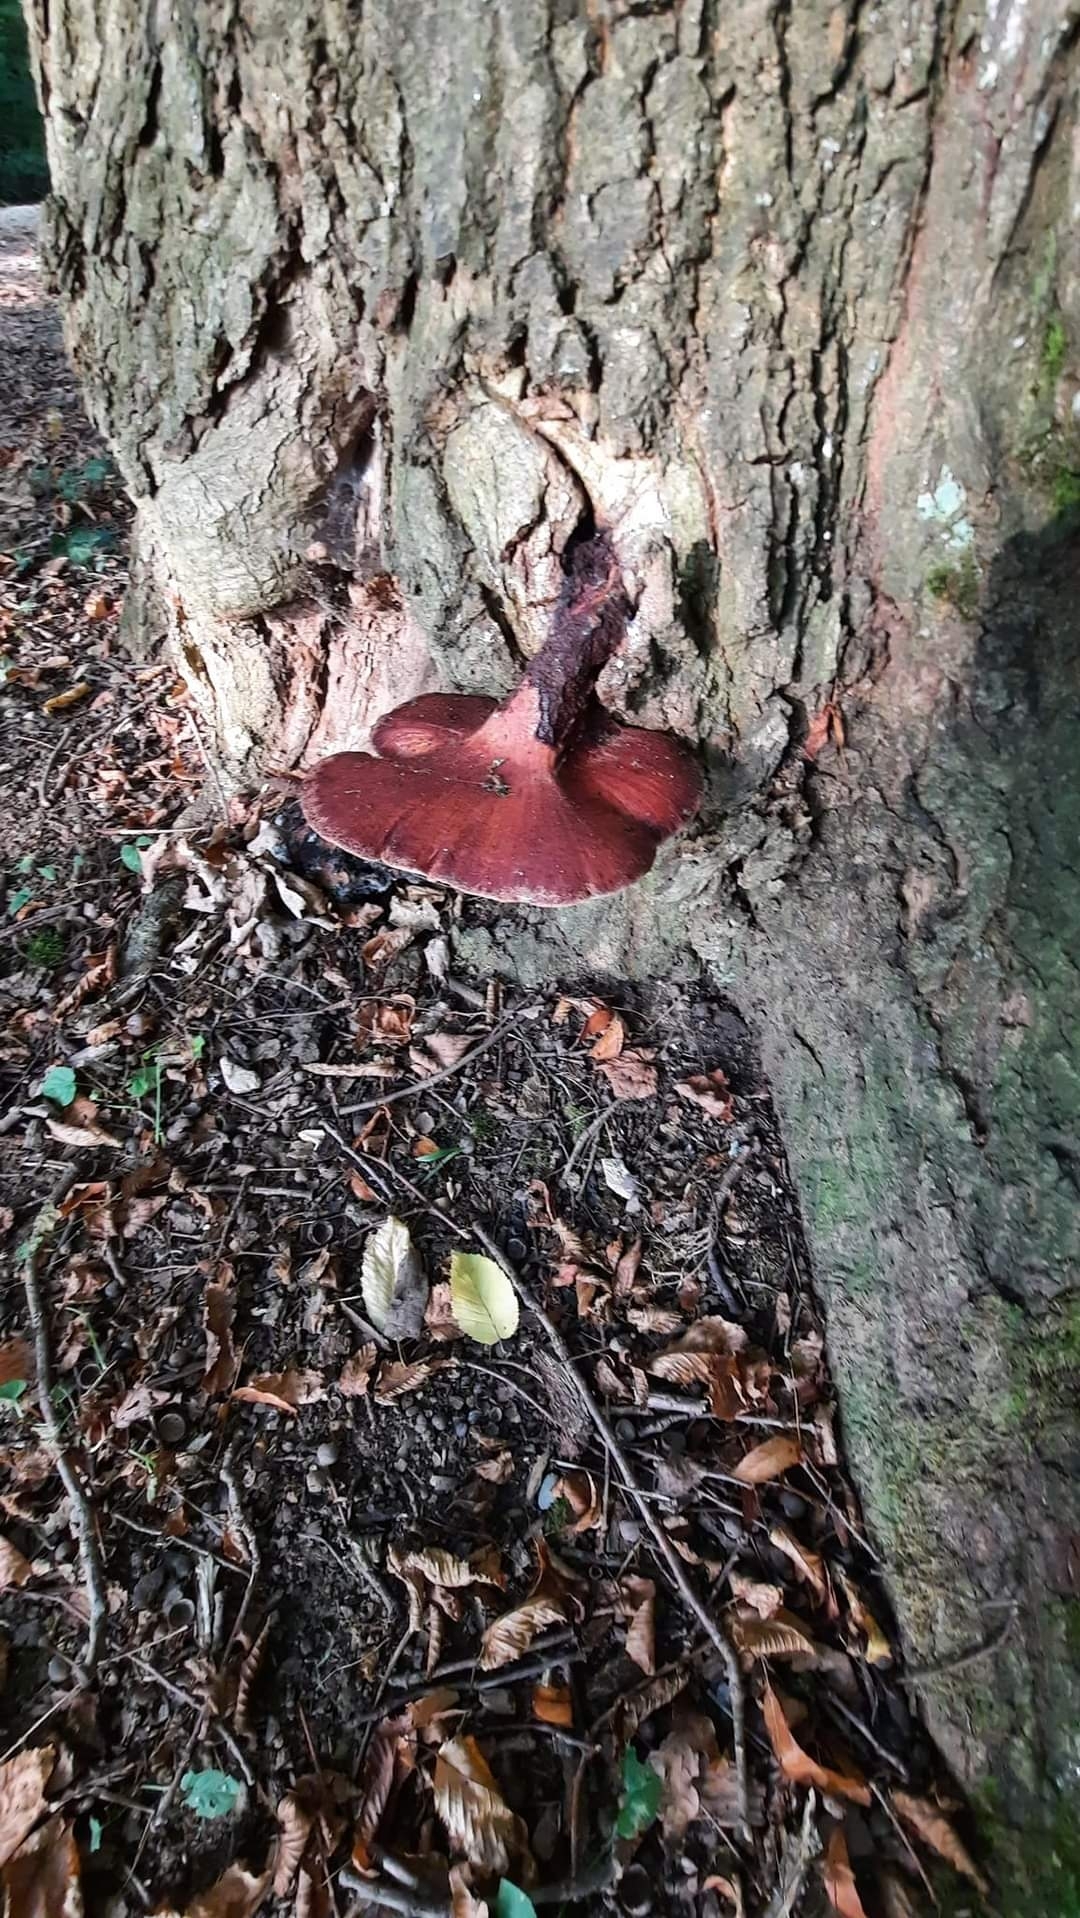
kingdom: Fungi
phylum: Basidiomycota
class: Agaricomycetes
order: Agaricales
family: Fistulinaceae
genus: Fistulina
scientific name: Fistulina hepatica
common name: Beef-steak fungus
